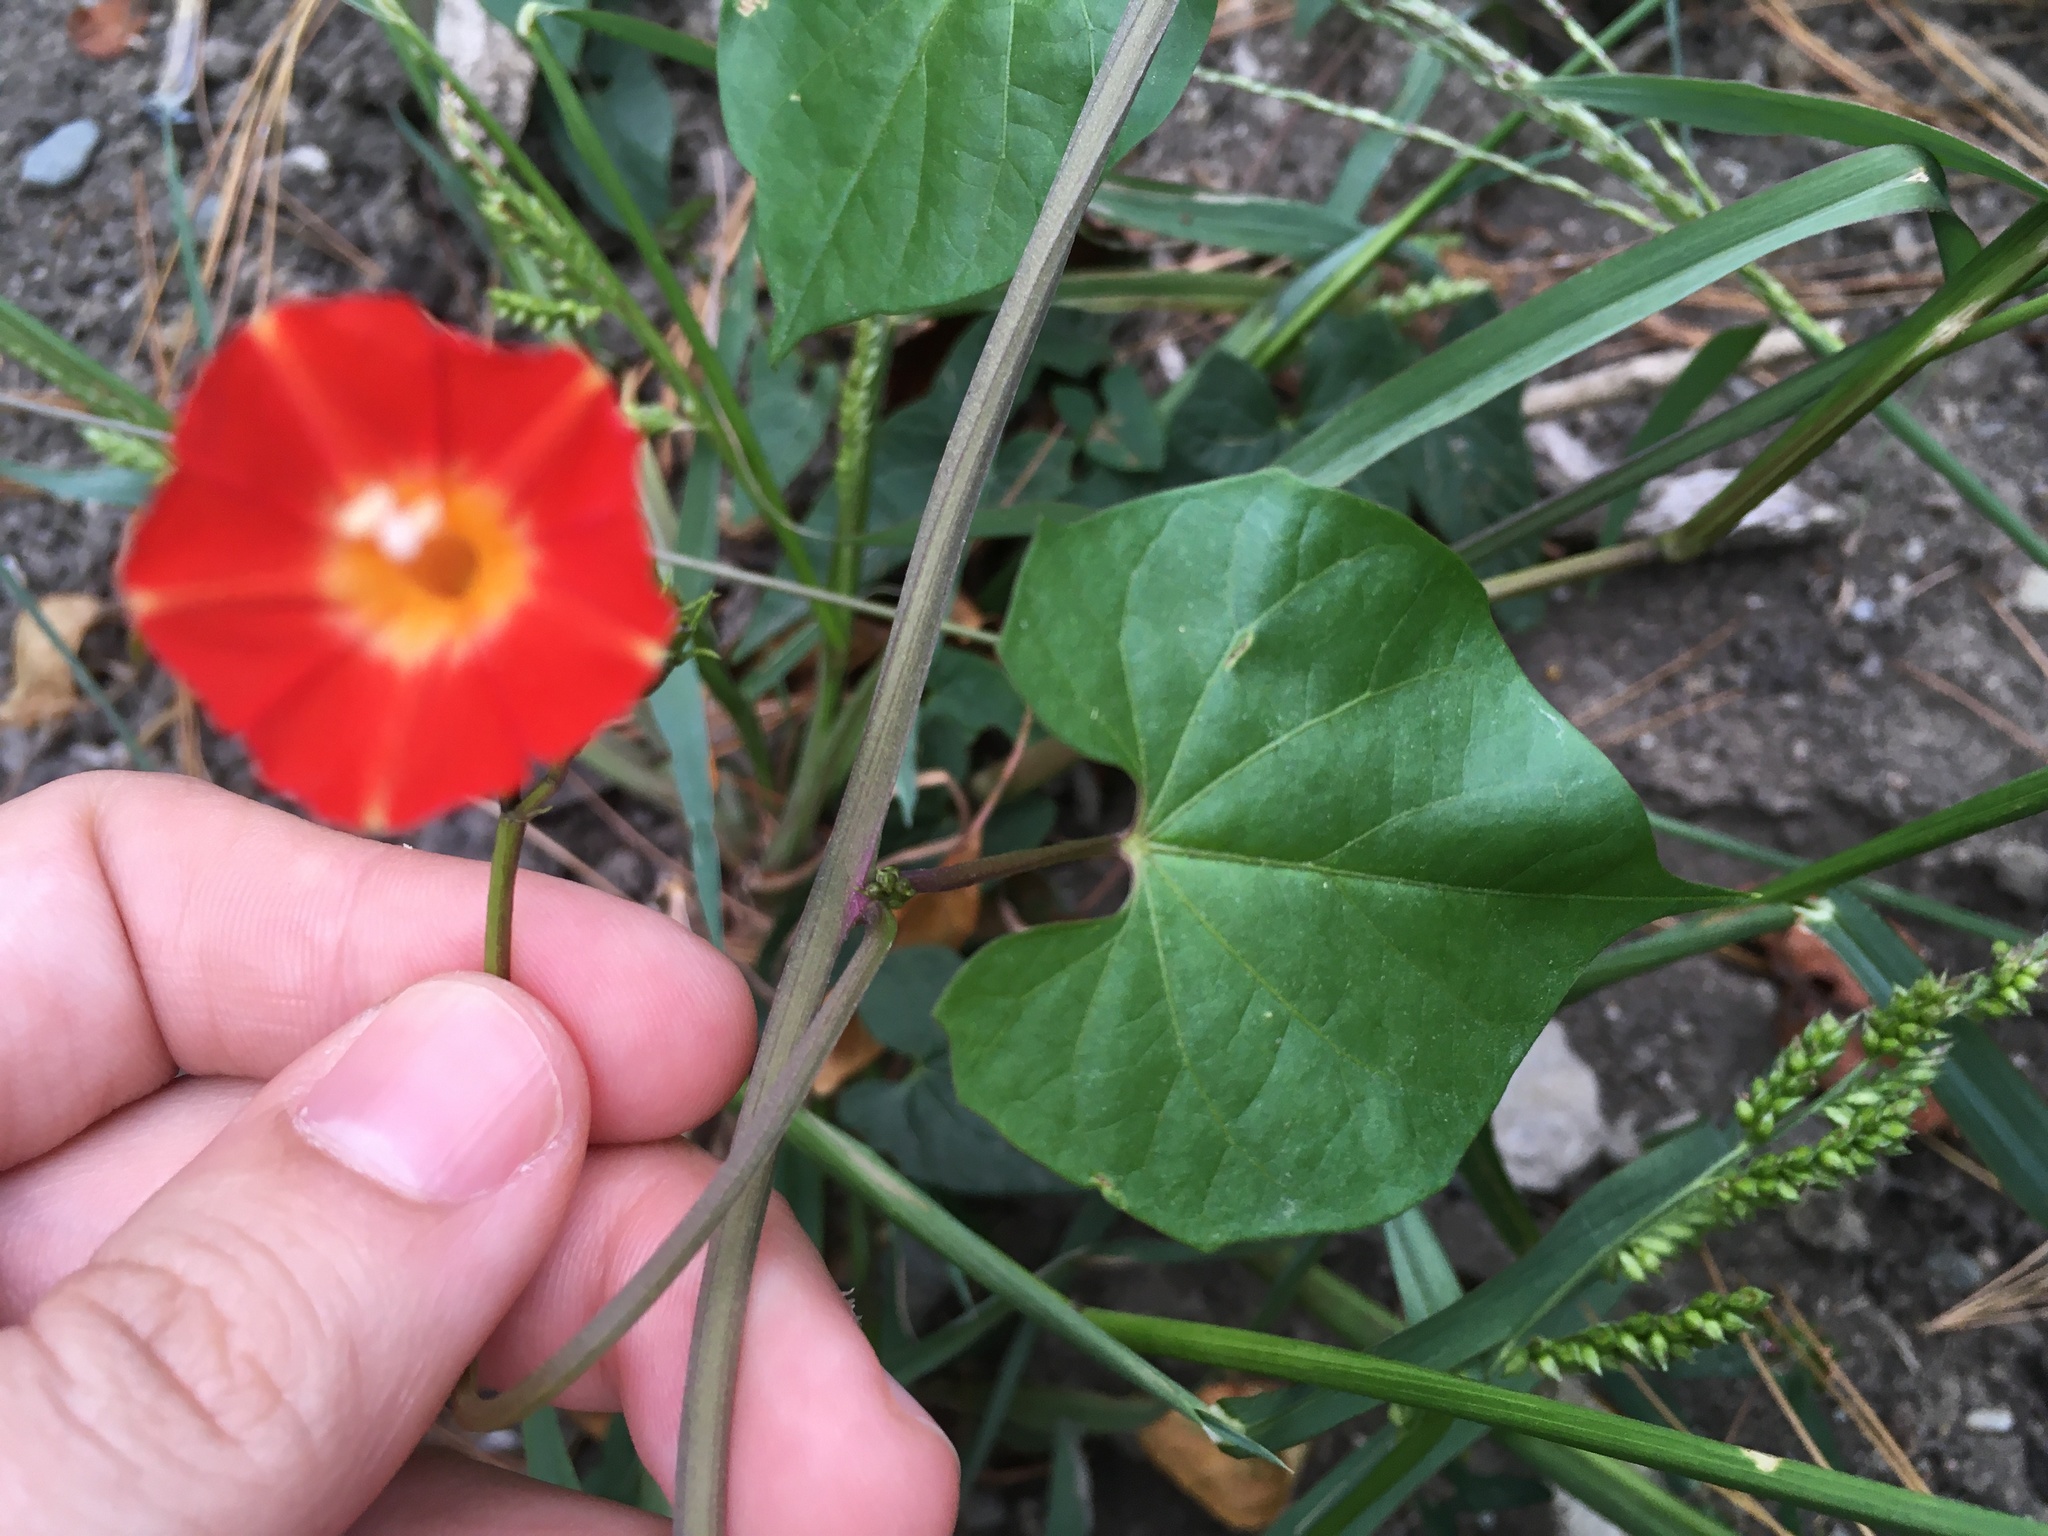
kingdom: Plantae
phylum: Tracheophyta
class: Magnoliopsida
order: Solanales
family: Convolvulaceae
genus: Ipomoea
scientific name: Ipomoea coccinea
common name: Red morning-glory
